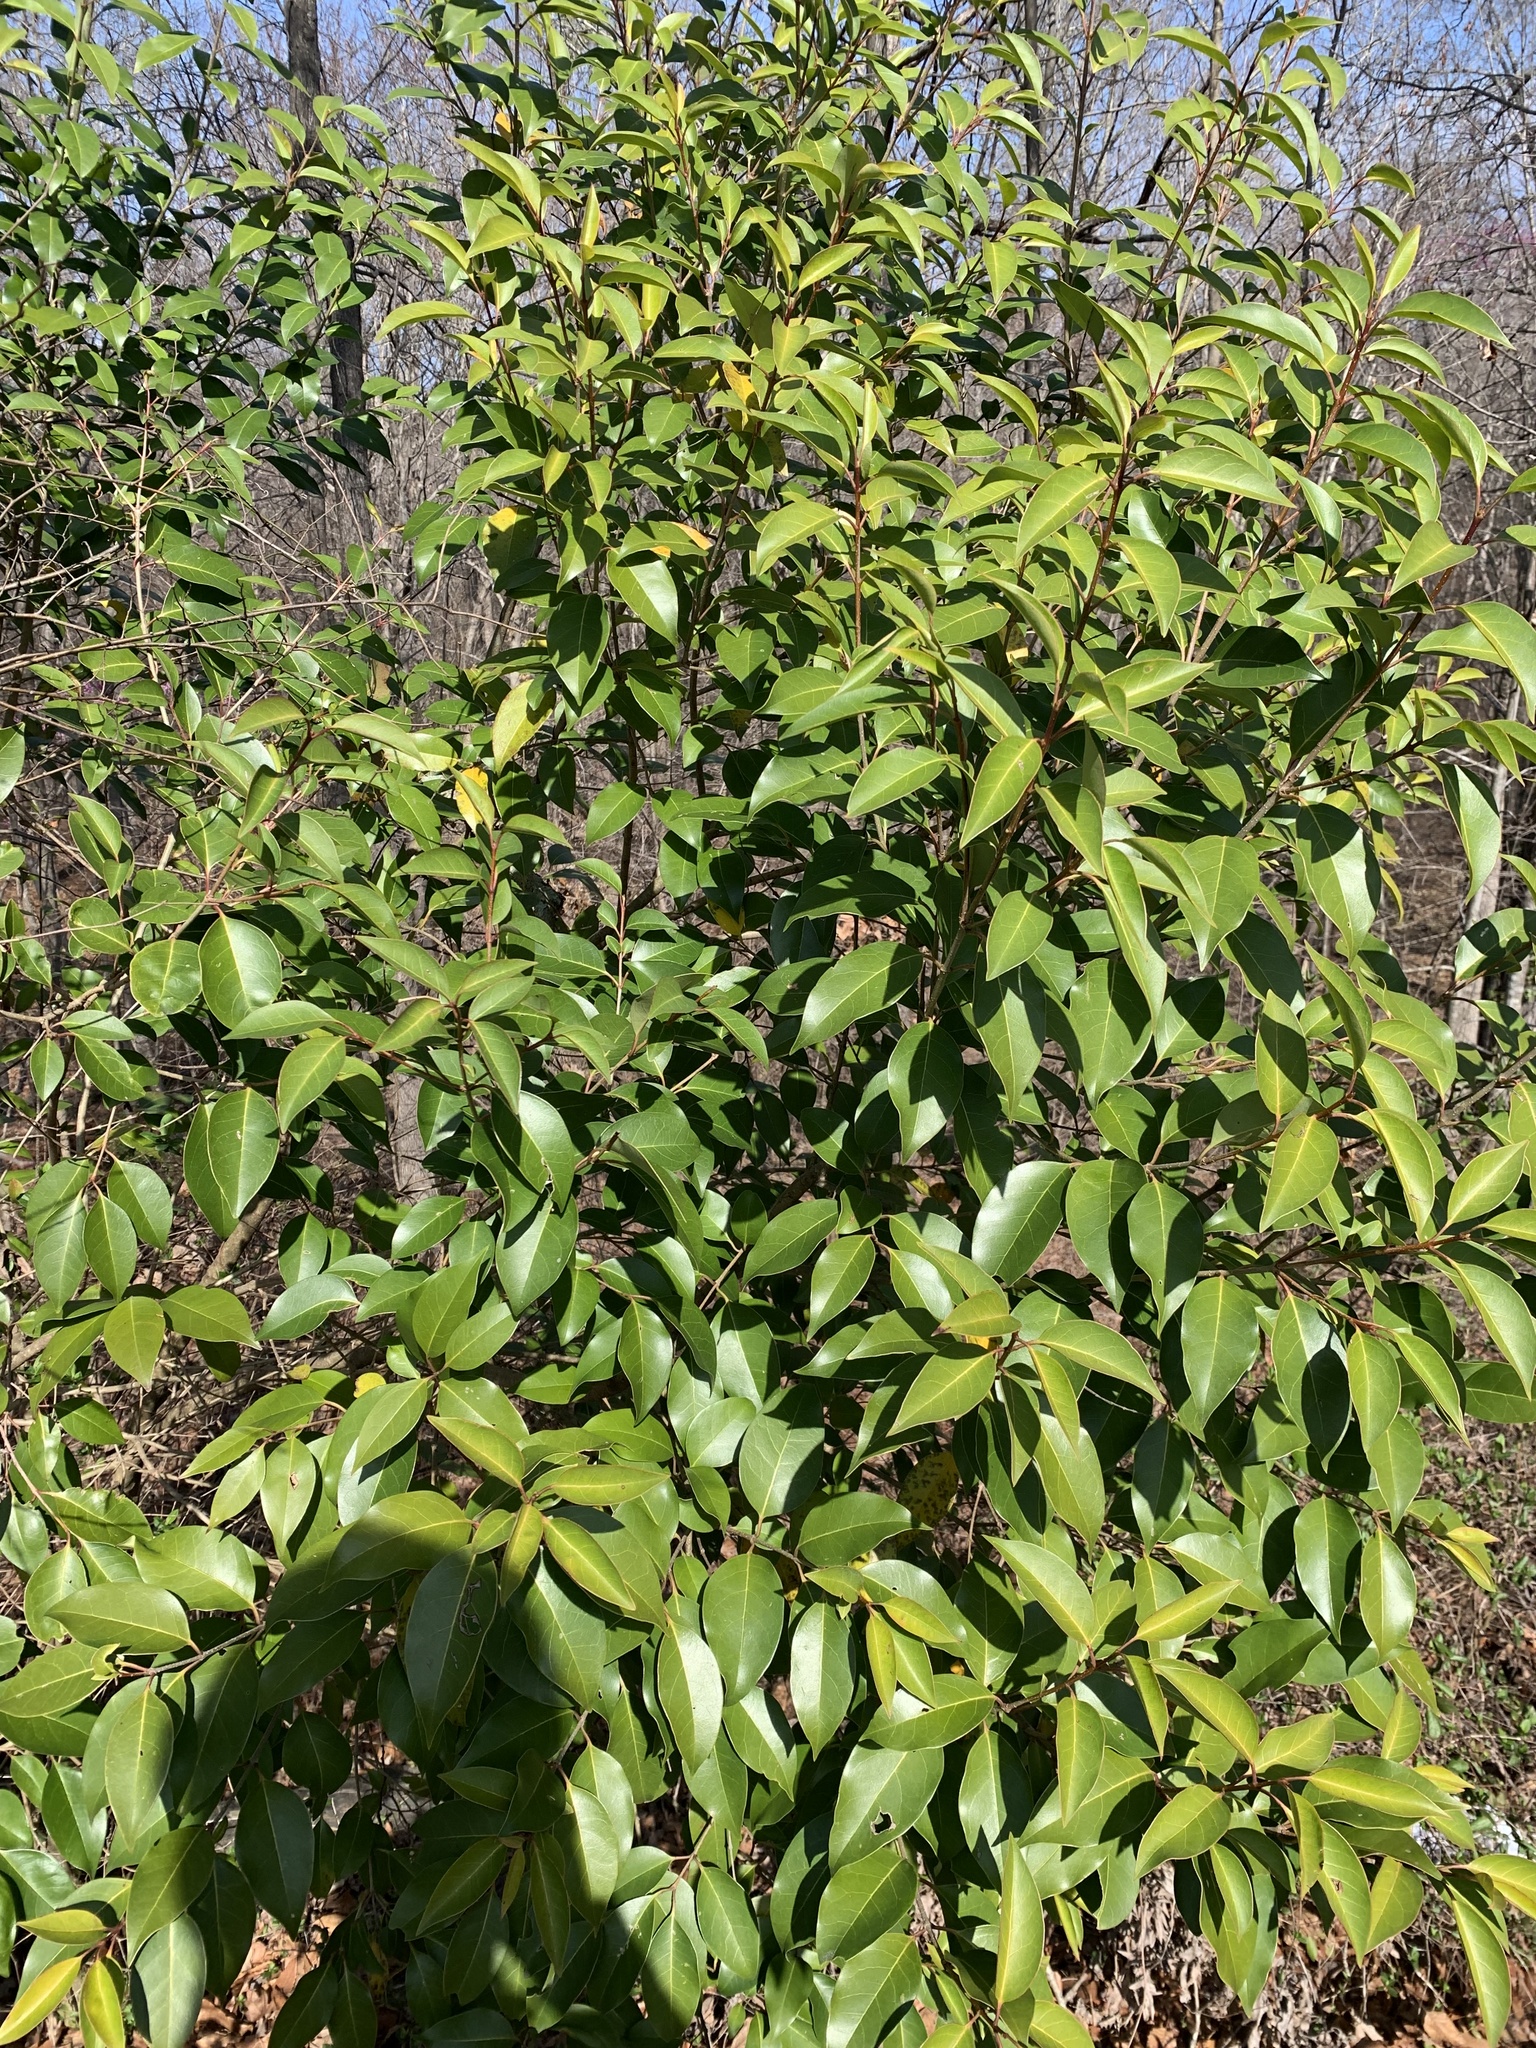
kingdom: Plantae
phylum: Tracheophyta
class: Magnoliopsida
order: Lamiales
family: Oleaceae
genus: Ligustrum
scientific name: Ligustrum lucidum
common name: Glossy privet
